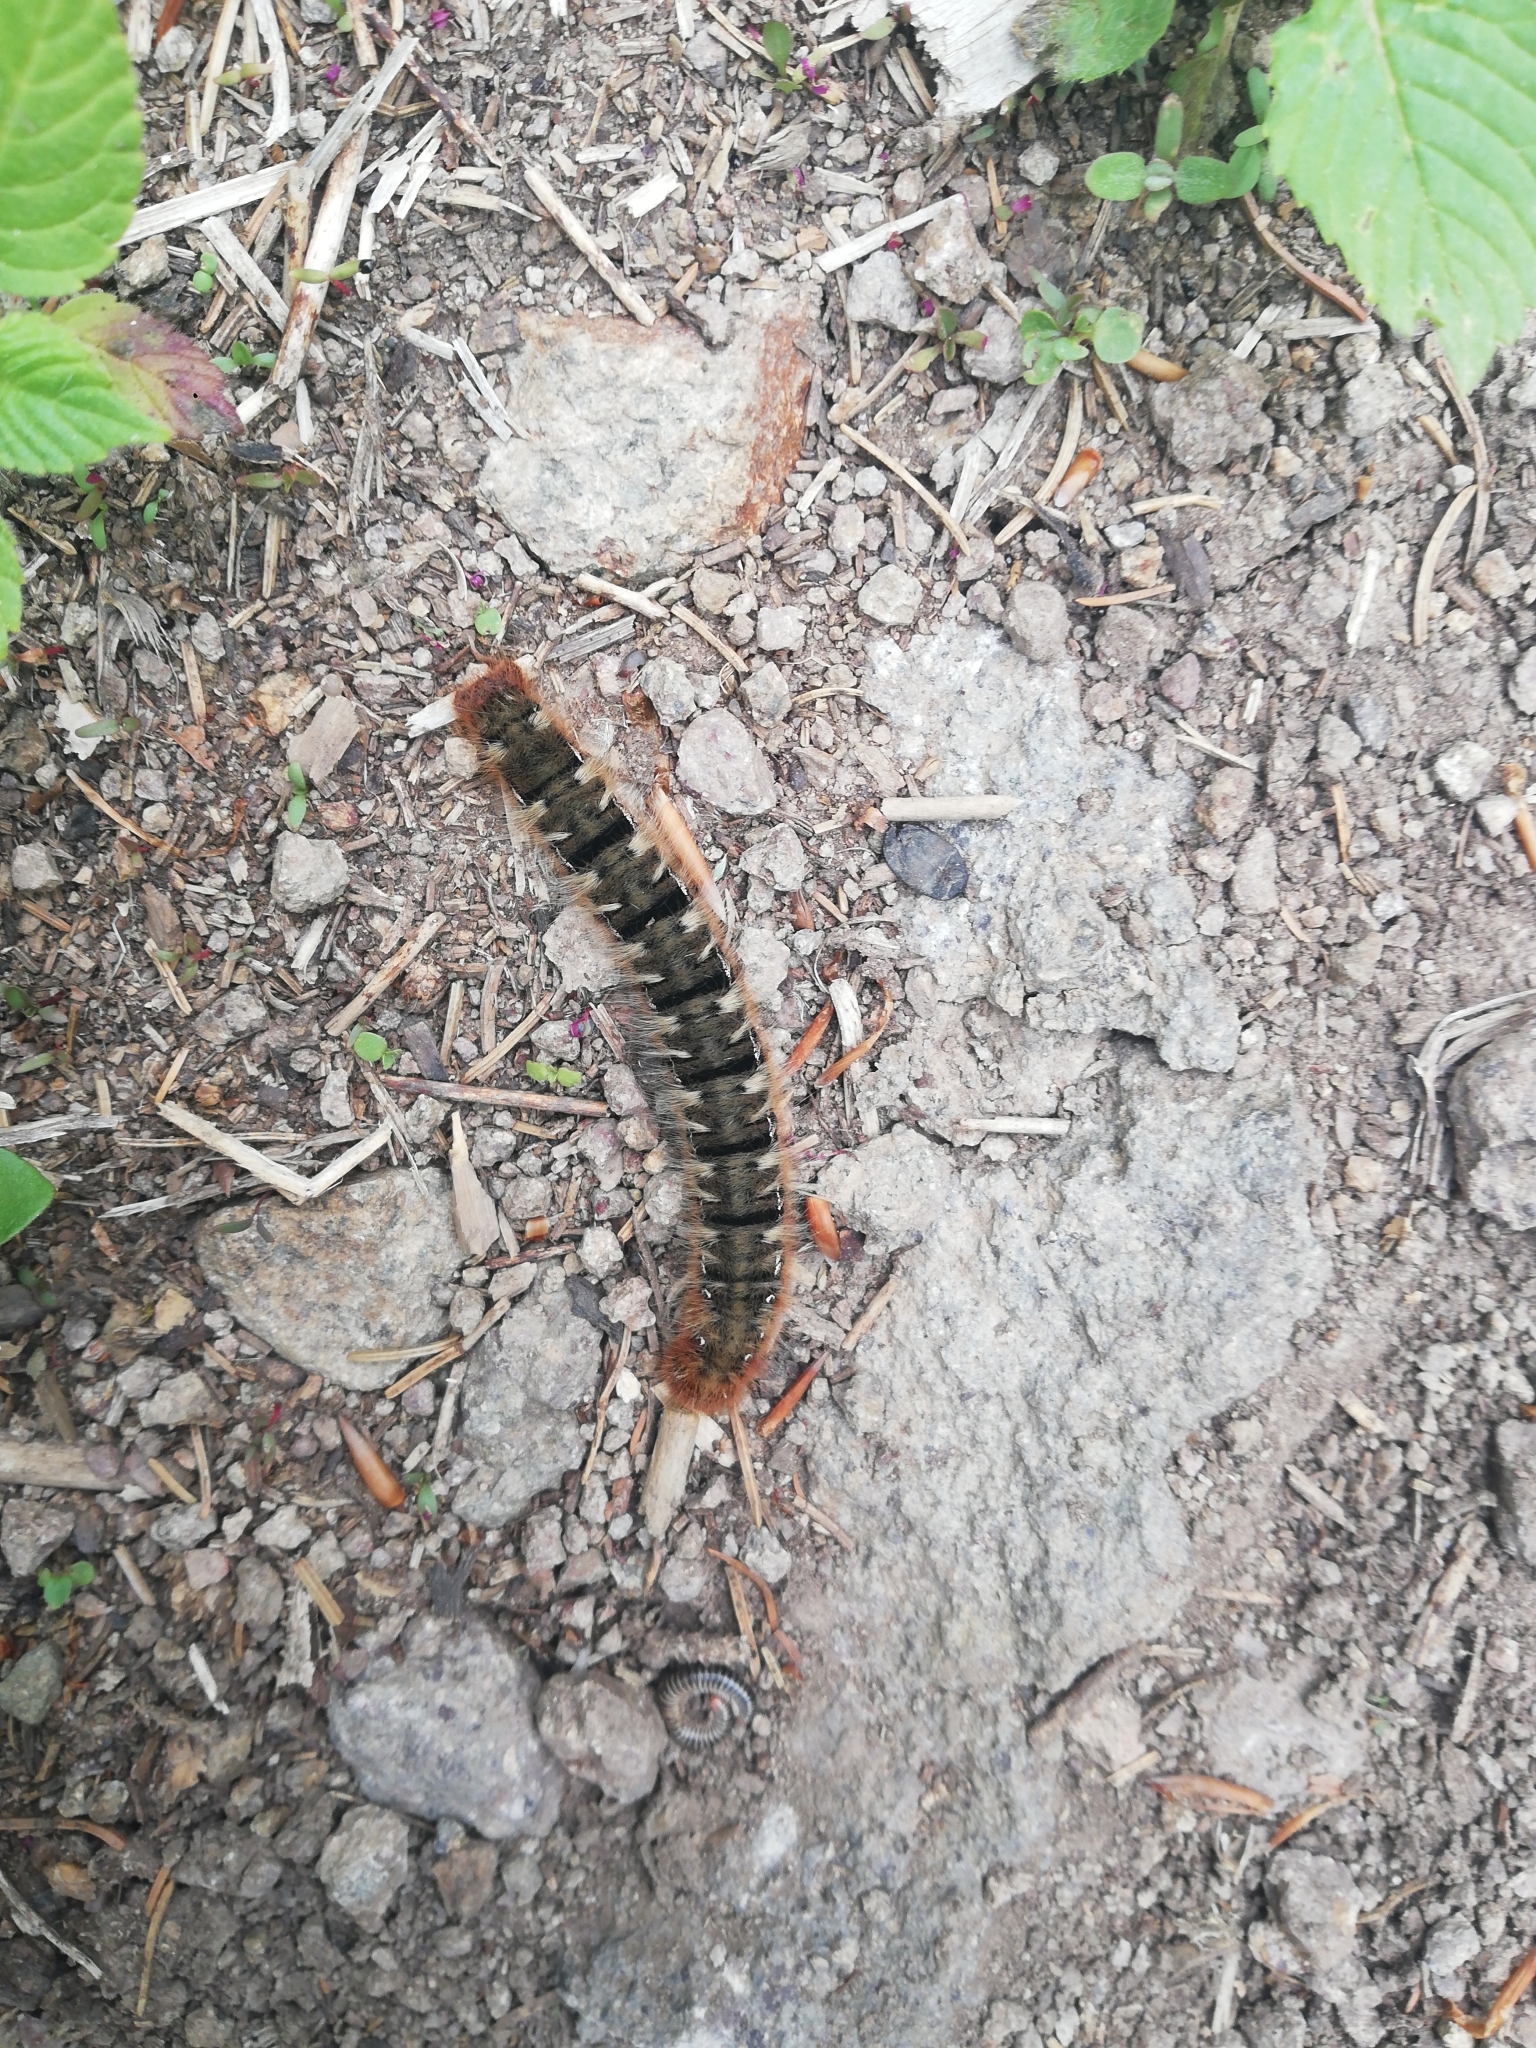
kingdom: Animalia
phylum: Arthropoda
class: Insecta
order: Lepidoptera
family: Lasiocampidae
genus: Lasiocampa
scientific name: Lasiocampa quercus
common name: Oak eggar
